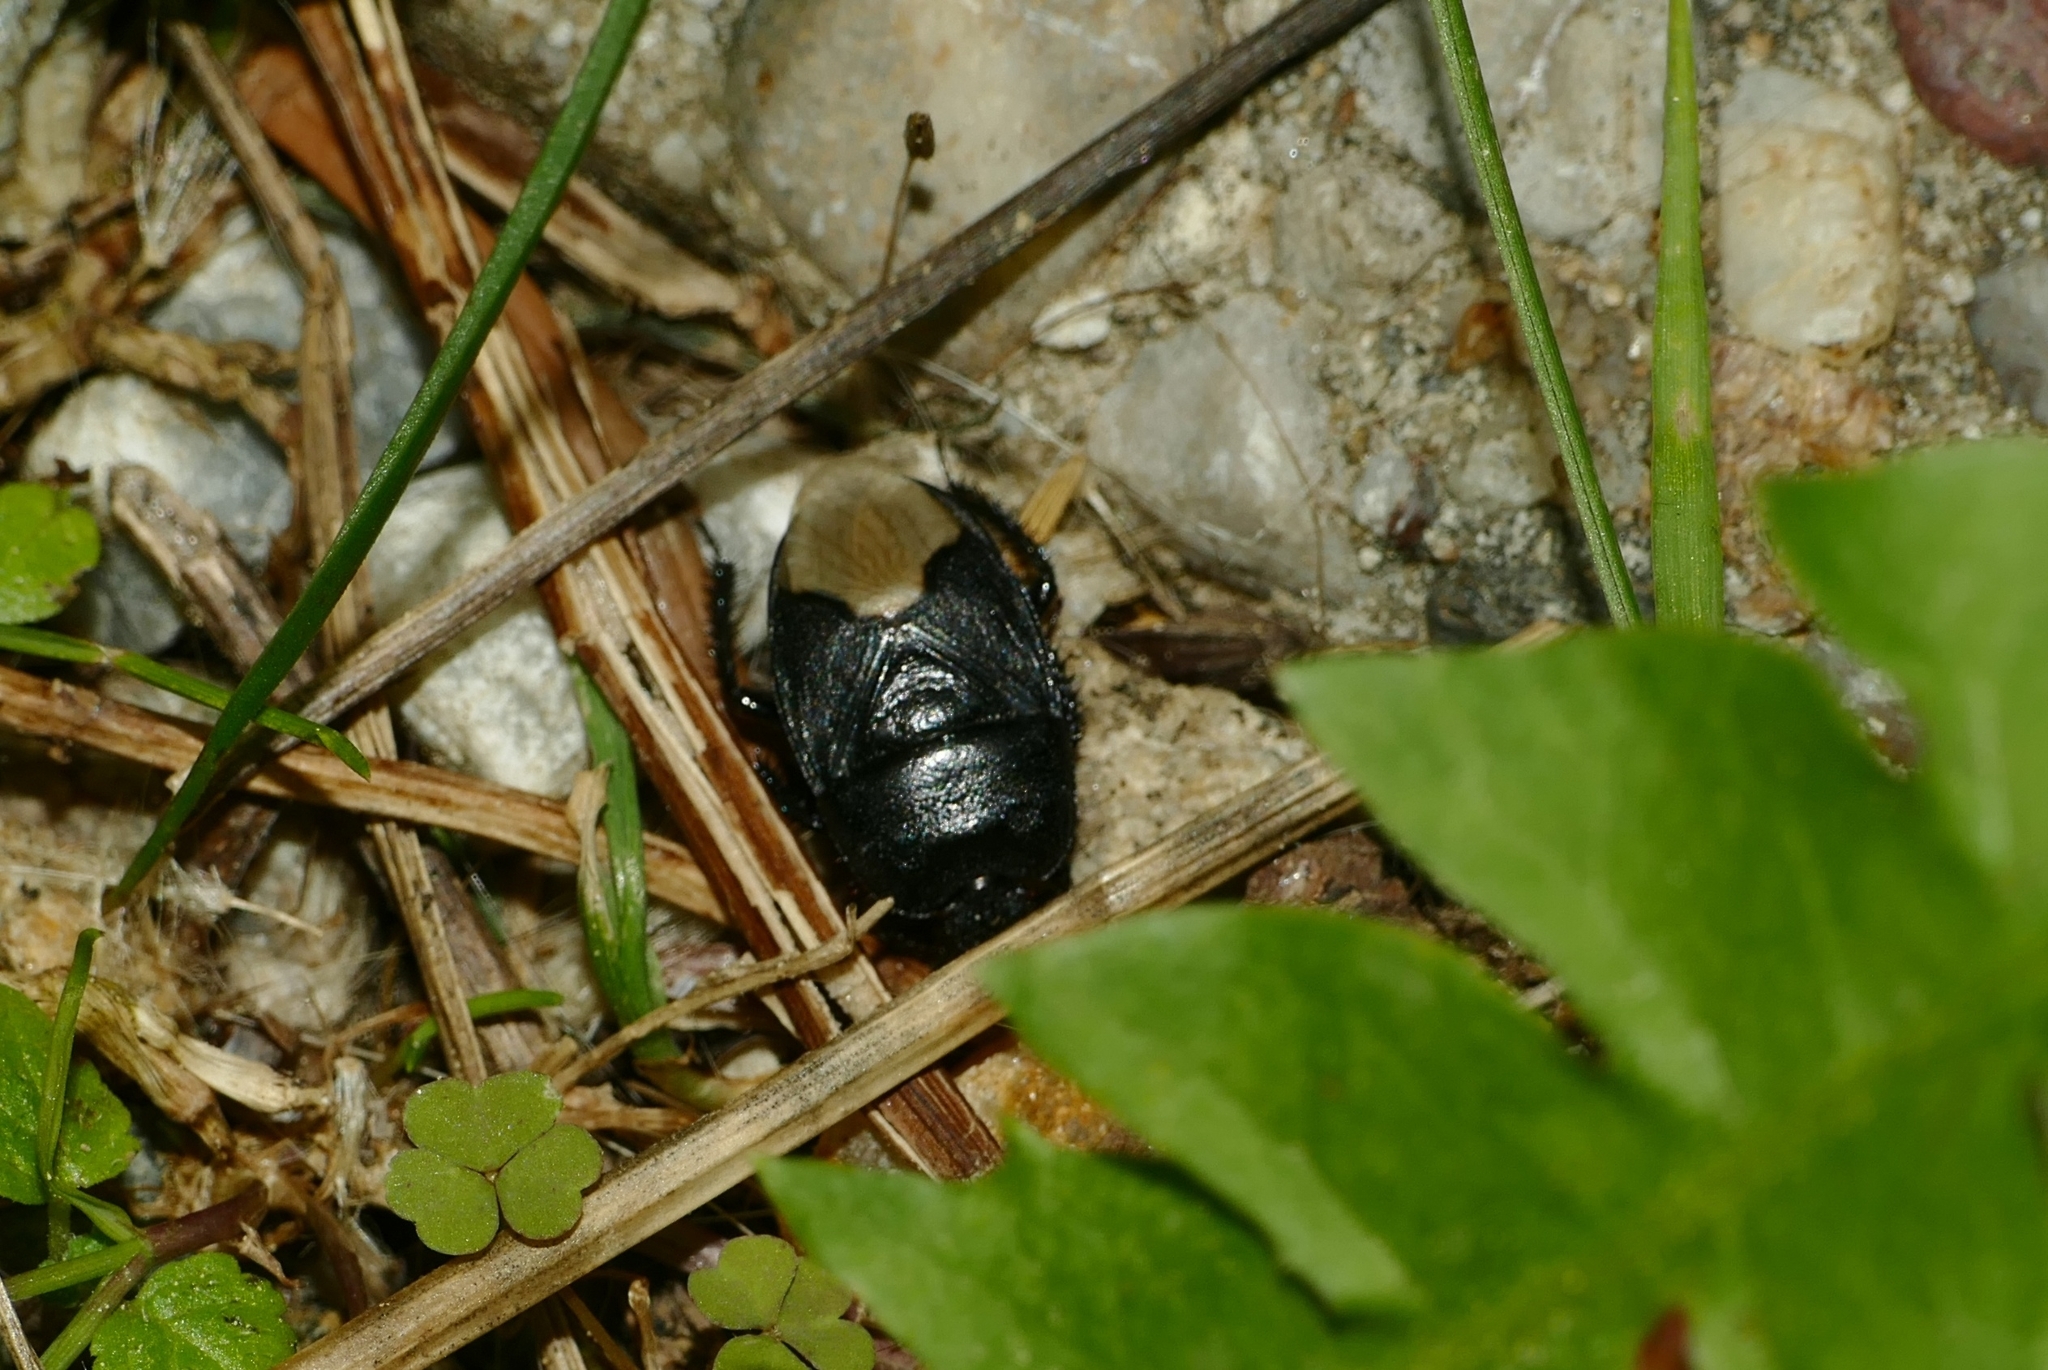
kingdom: Animalia
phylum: Arthropoda
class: Insecta
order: Hemiptera
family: Cydnidae
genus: Cydnus
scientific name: Cydnus aterrimus
